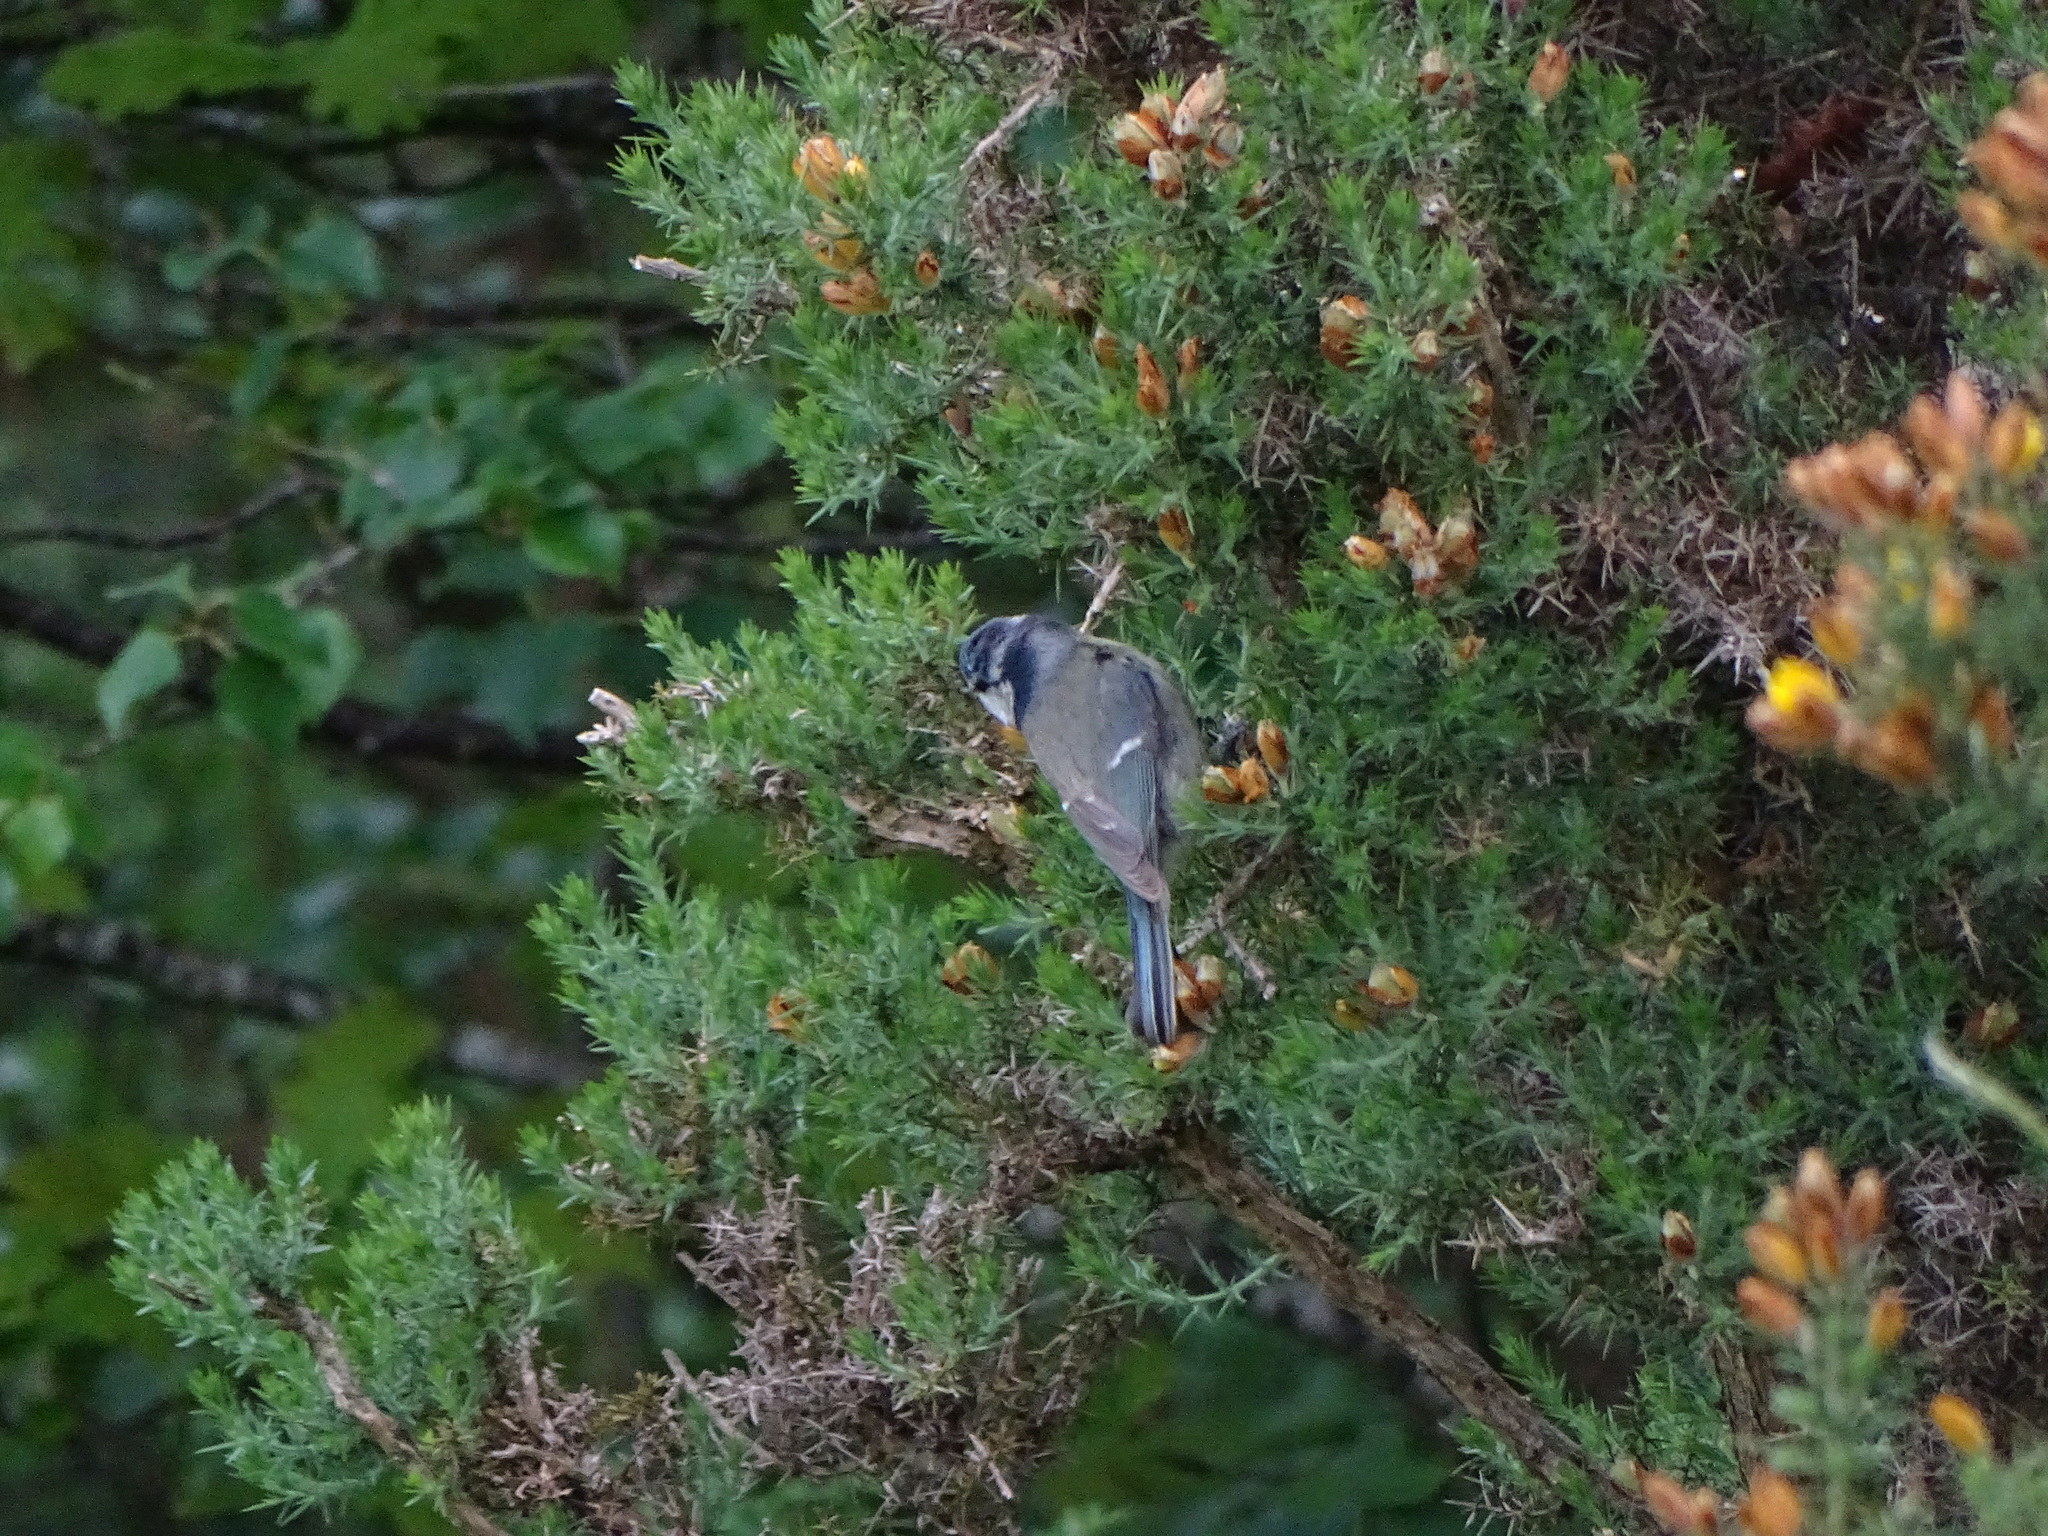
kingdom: Animalia
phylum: Chordata
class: Aves
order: Passeriformes
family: Paridae
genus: Cyanistes
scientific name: Cyanistes caeruleus
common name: Eurasian blue tit
